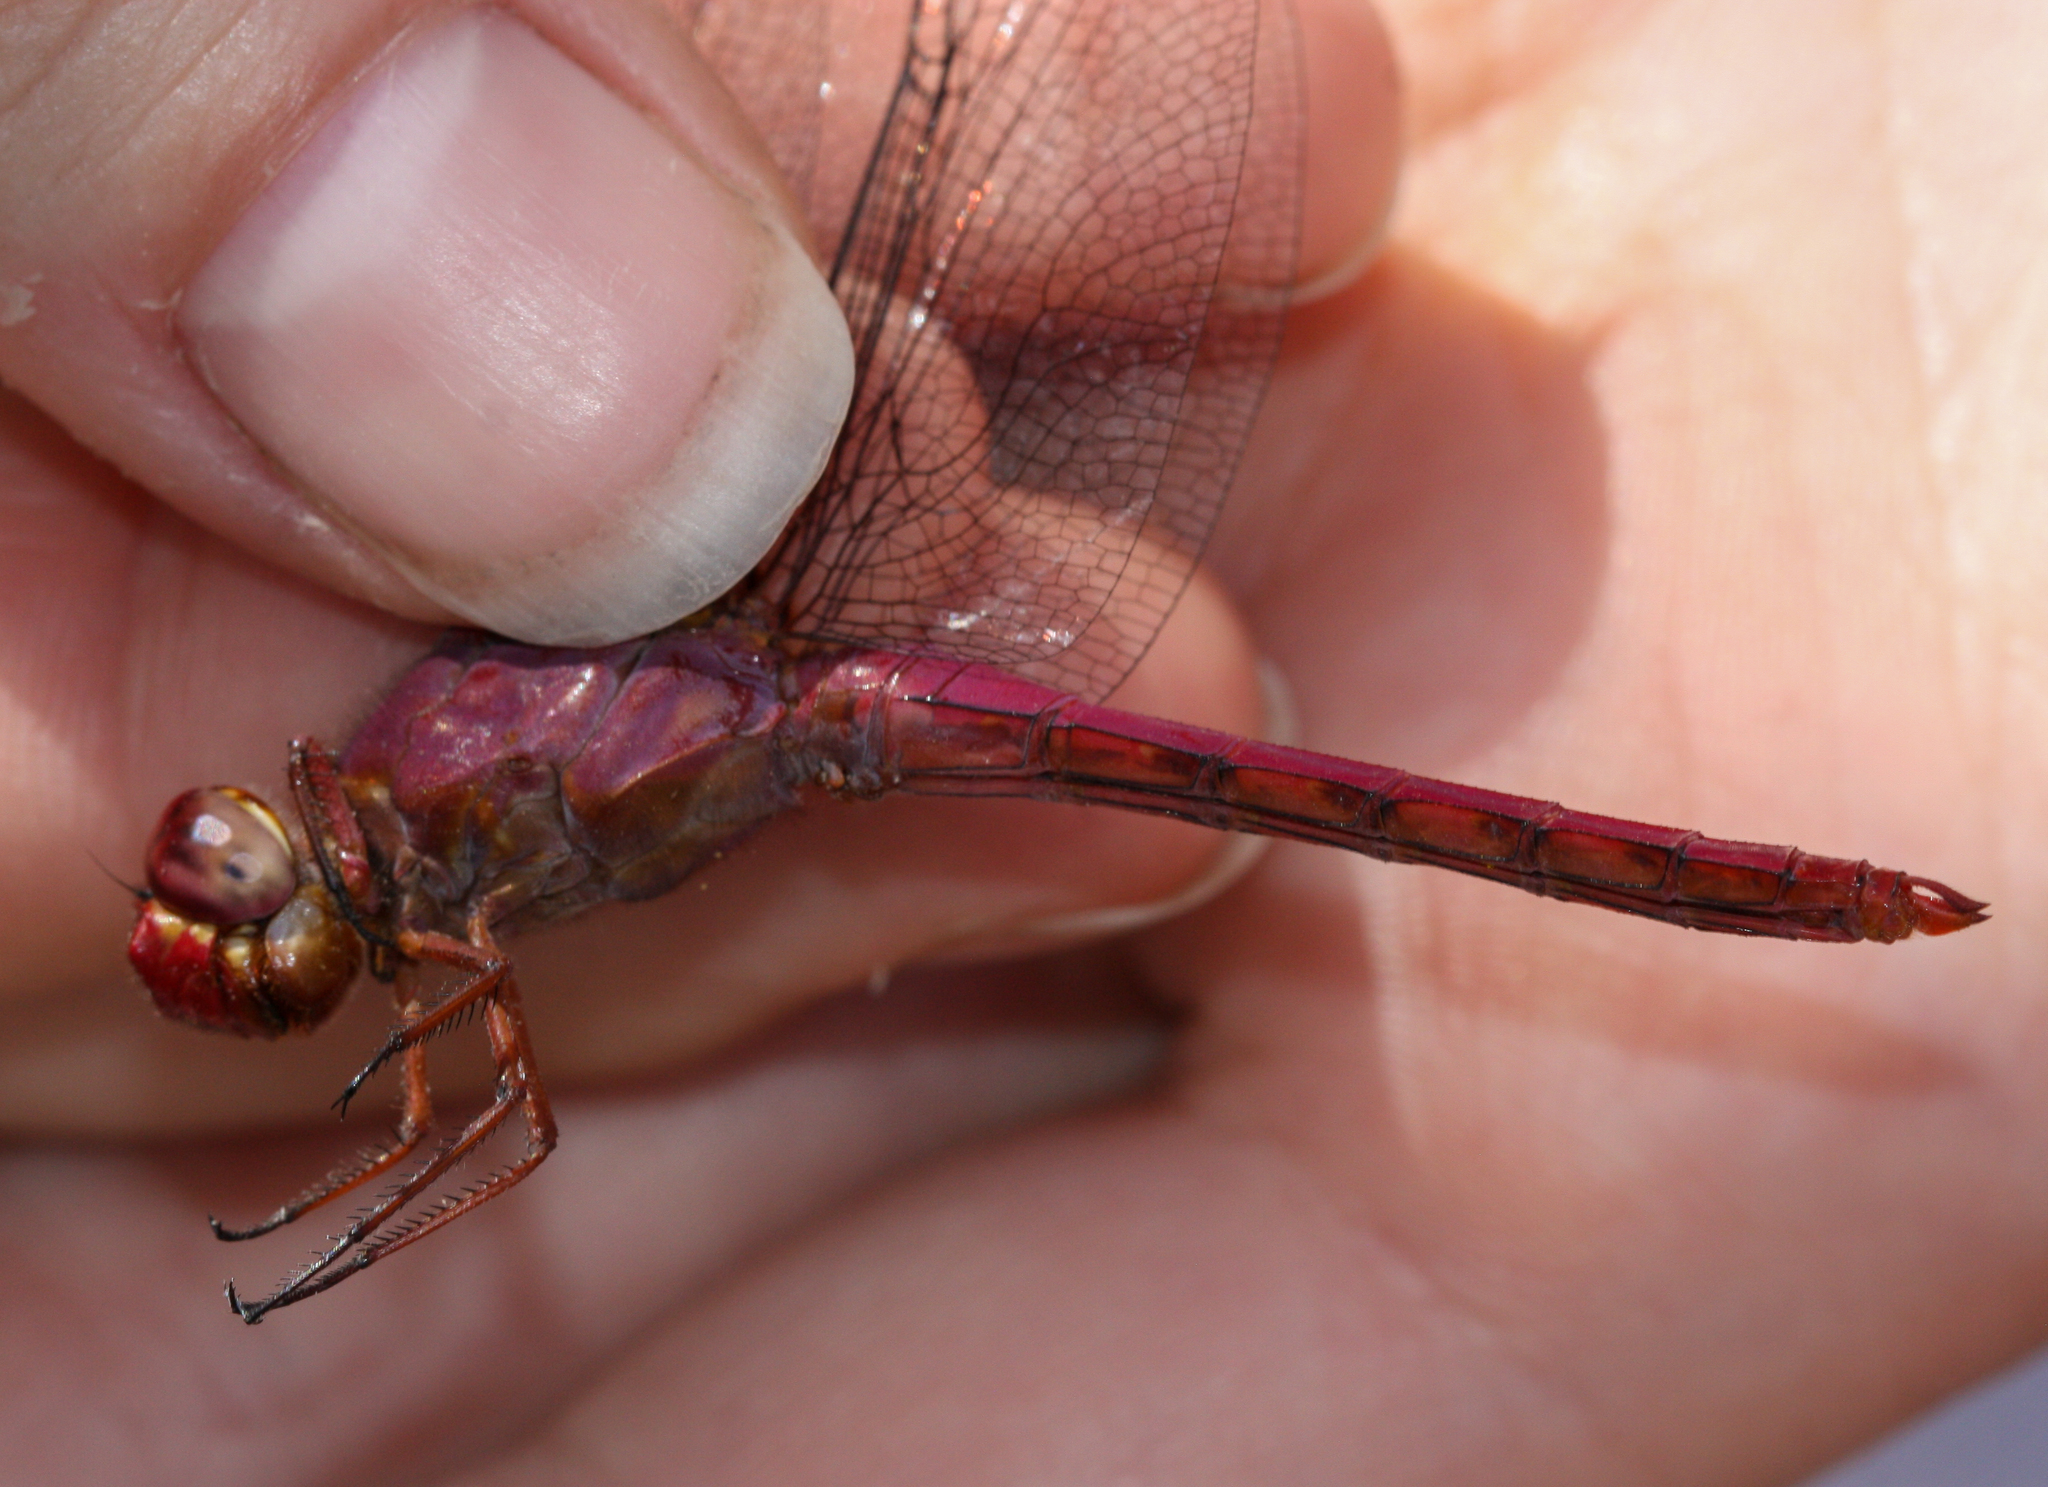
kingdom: Animalia
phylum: Arthropoda
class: Insecta
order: Odonata
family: Libellulidae
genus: Orthemis
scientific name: Orthemis discolor
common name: Carmine skimmer
